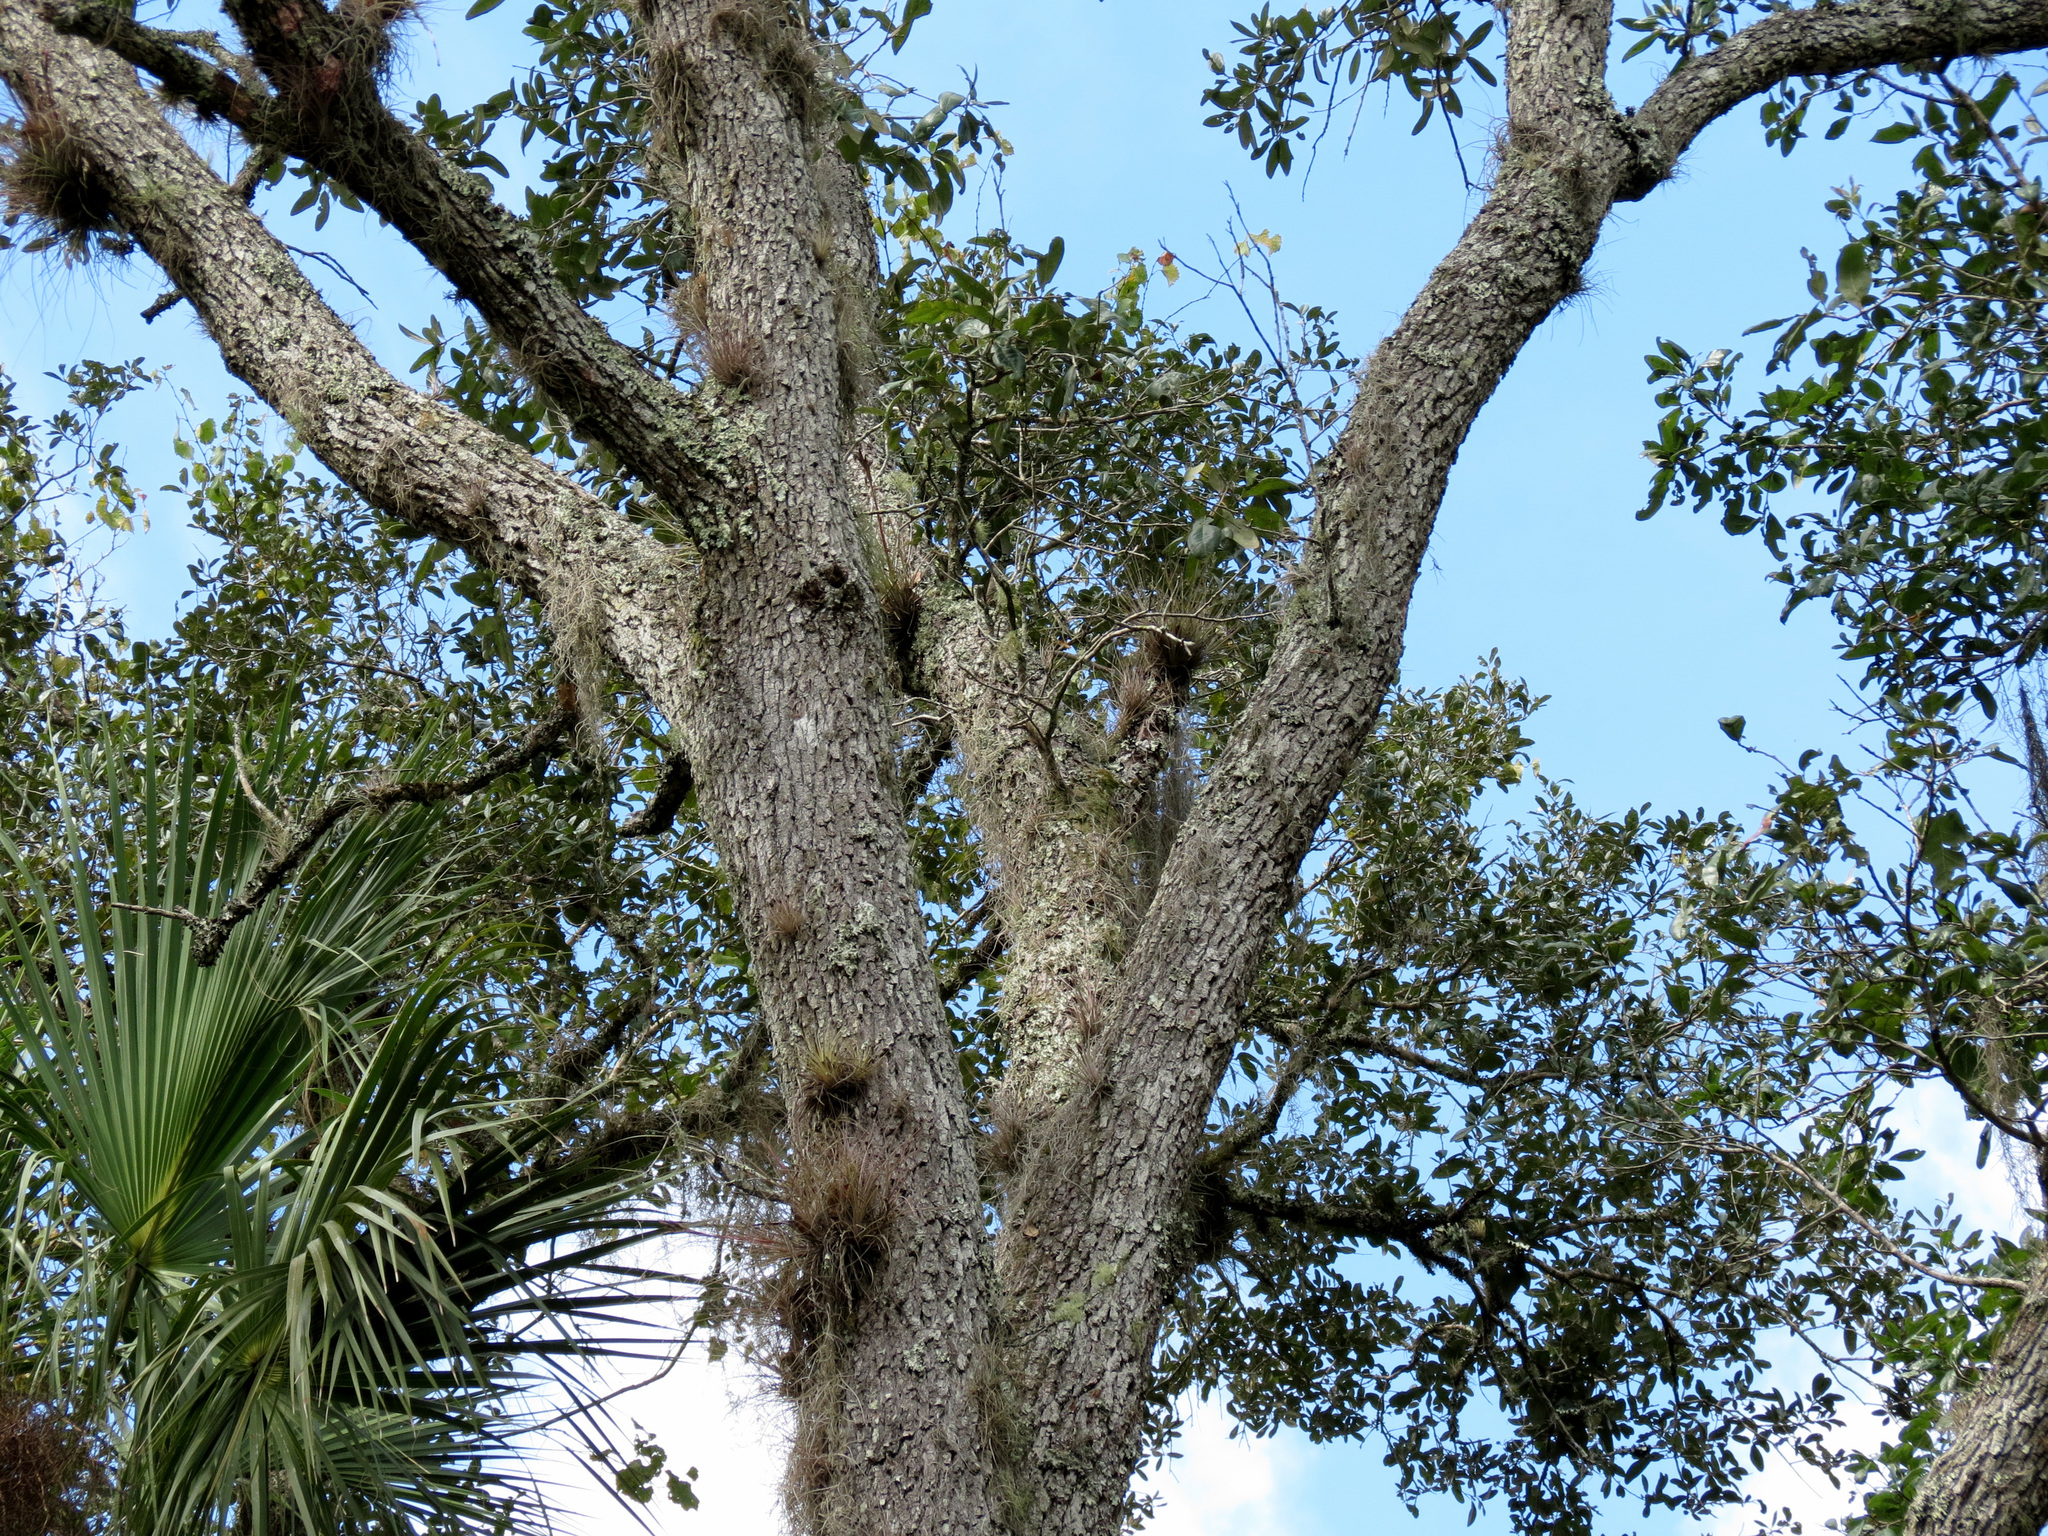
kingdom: Plantae
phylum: Tracheophyta
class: Magnoliopsida
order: Fagales
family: Fagaceae
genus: Quercus
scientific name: Quercus virginiana
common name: Southern live oak
